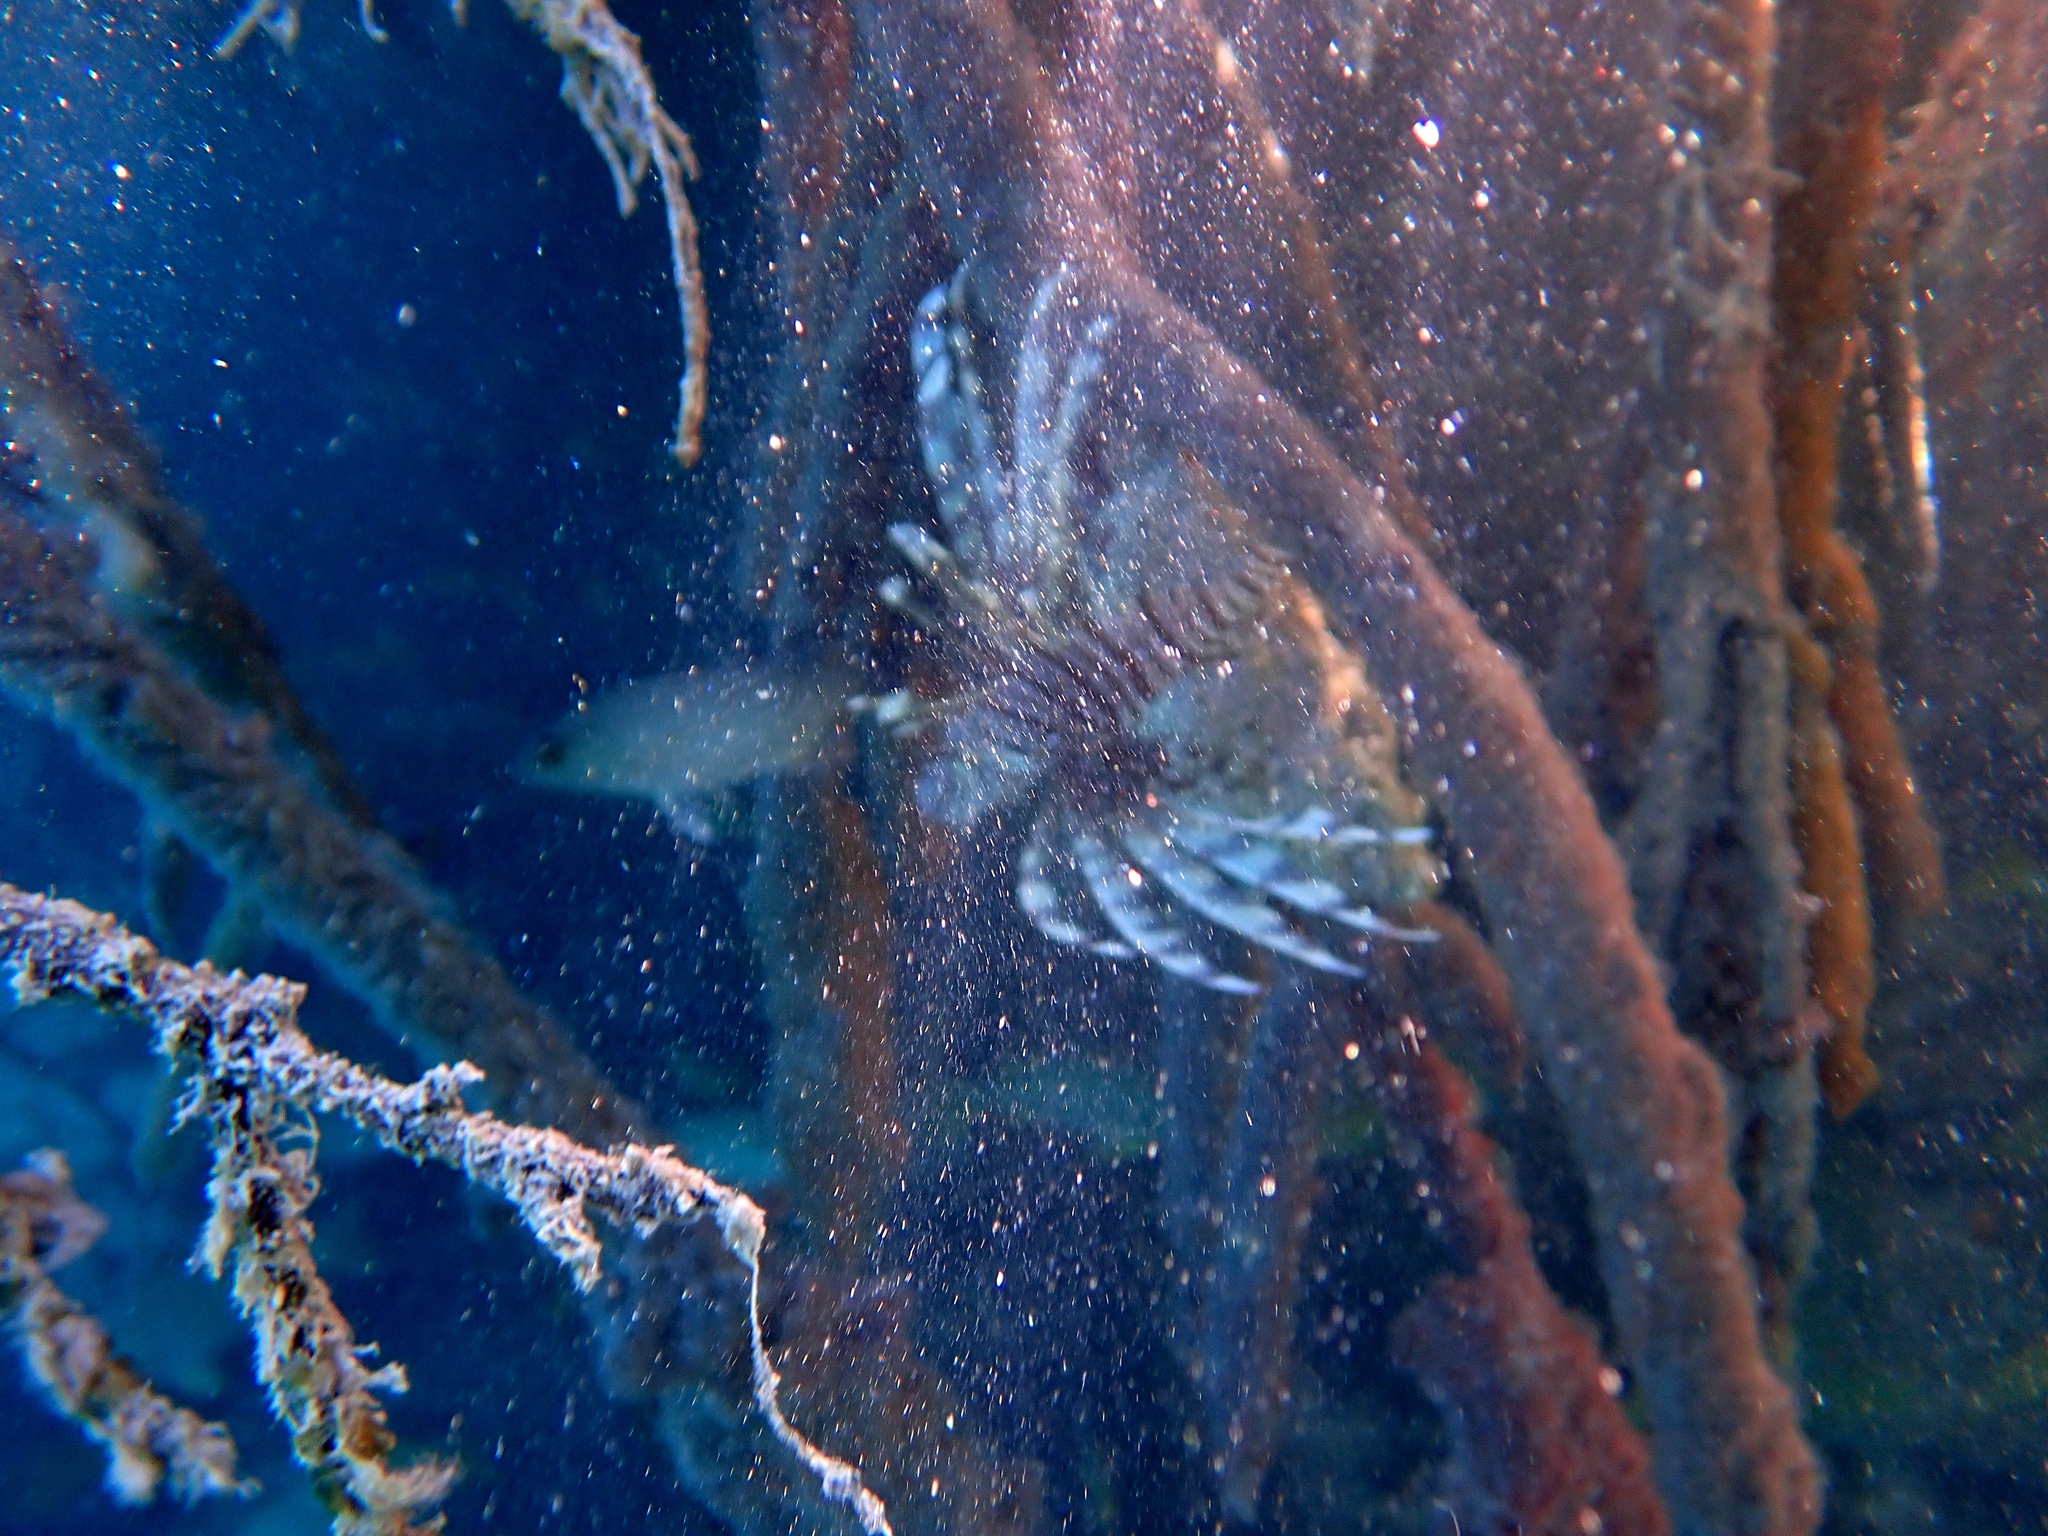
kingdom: Animalia
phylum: Chordata
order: Scorpaeniformes
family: Scorpaenidae
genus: Pterois
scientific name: Pterois volitans
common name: Lionfish
